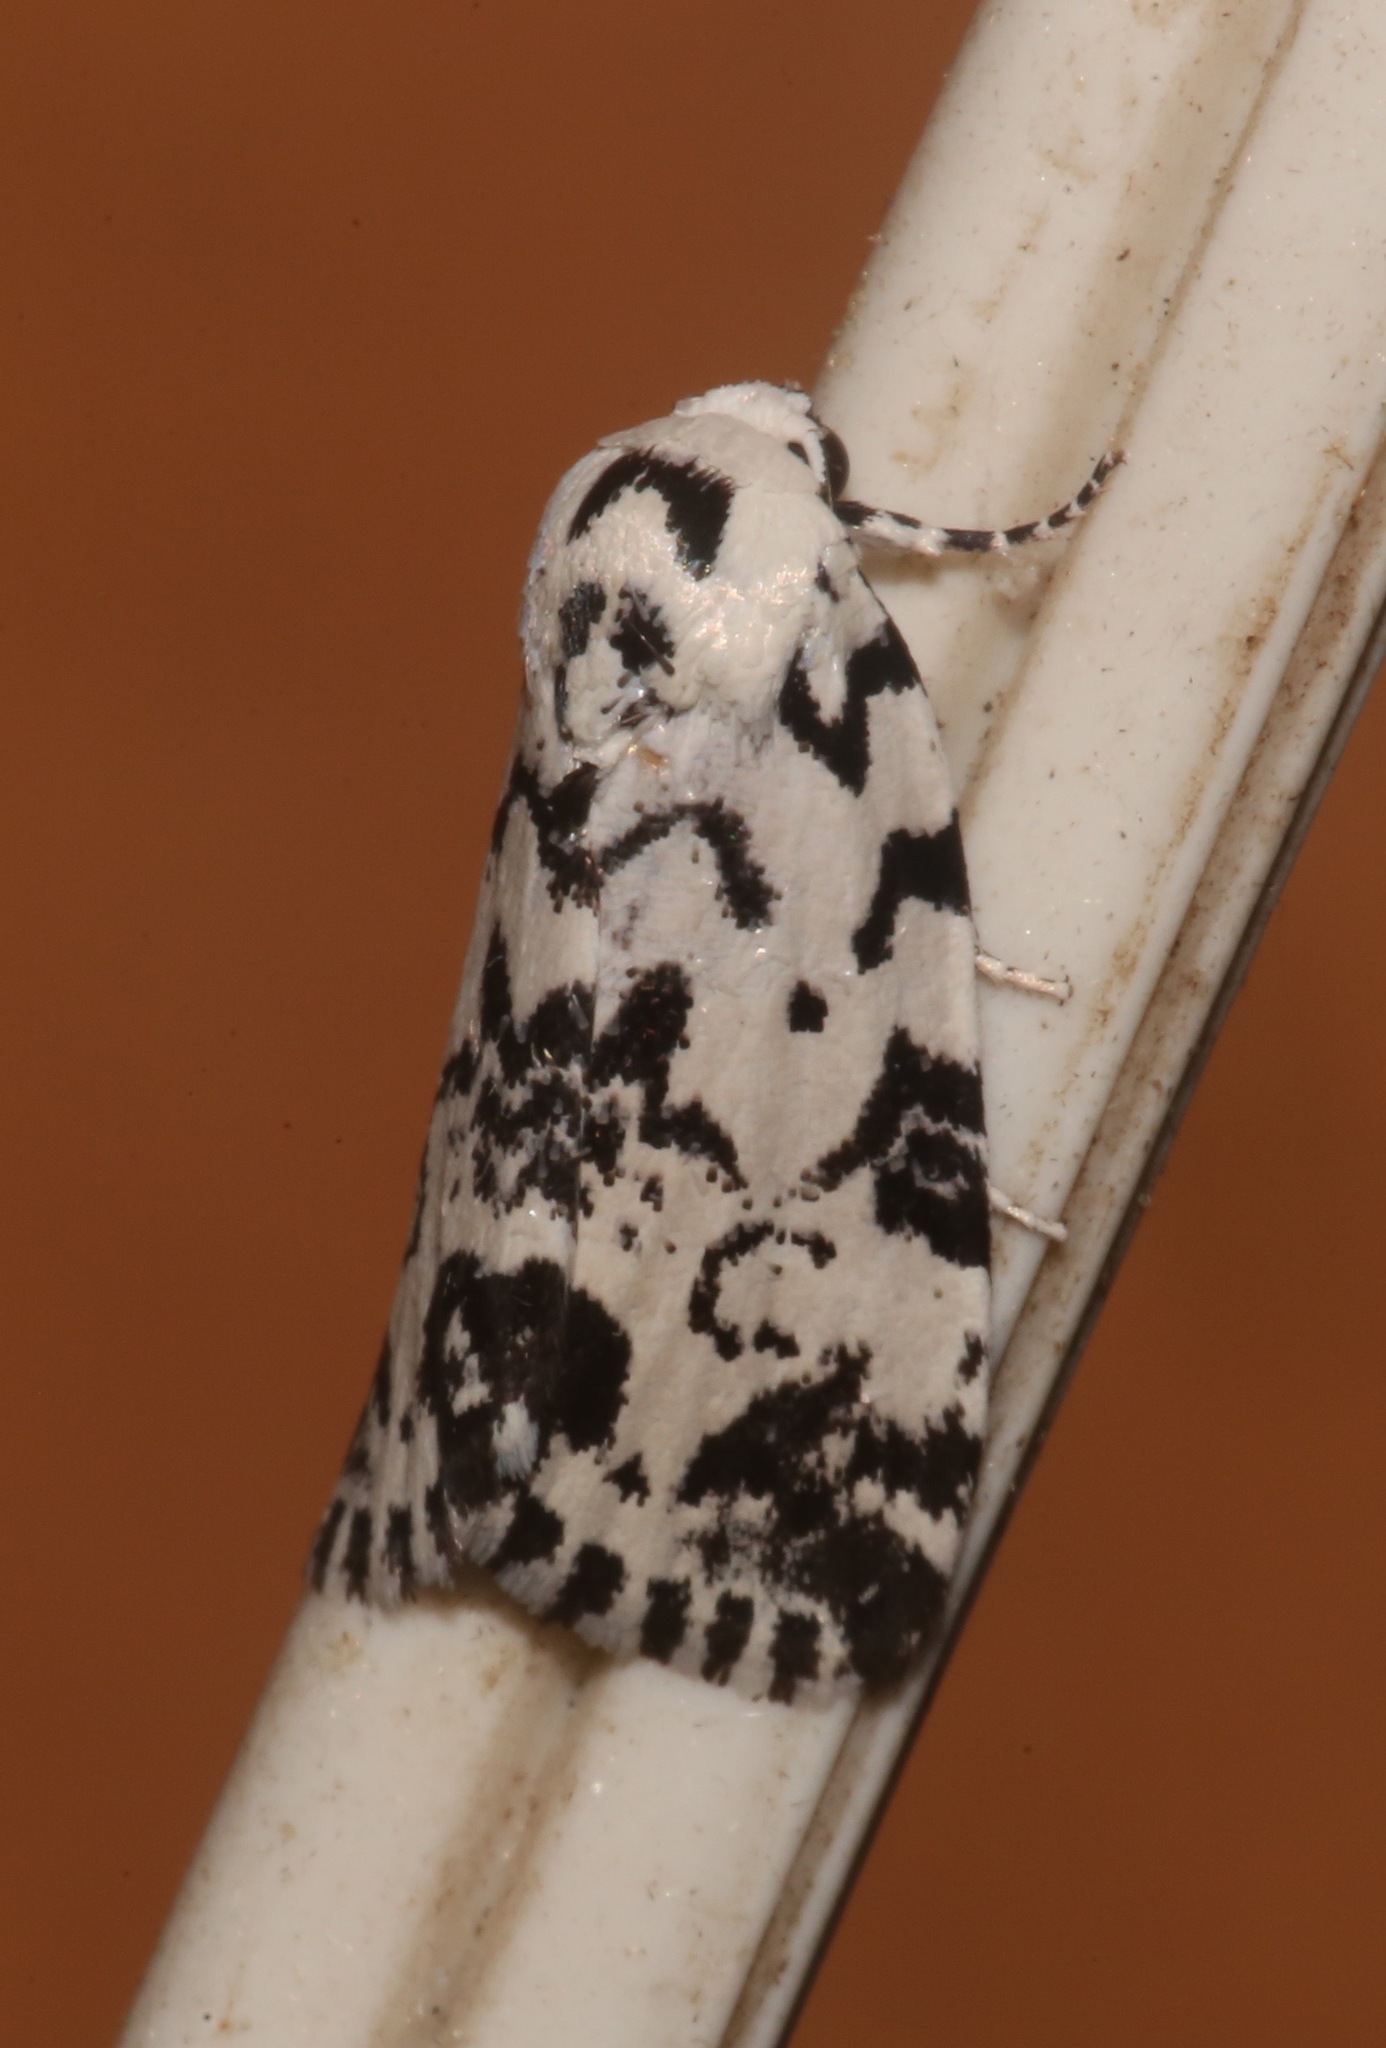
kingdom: Animalia
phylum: Arthropoda
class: Insecta
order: Lepidoptera
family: Noctuidae
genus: Polygrammate
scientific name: Polygrammate hebraeicum
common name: Hebrew moth
